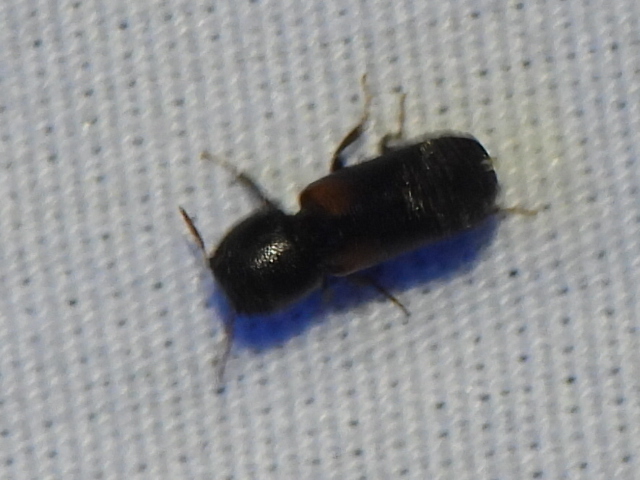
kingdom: Animalia
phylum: Arthropoda
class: Insecta
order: Coleoptera
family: Bostrichidae
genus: Xylobiops
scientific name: Xylobiops basilaris
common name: Red-shouldered bostrichid
